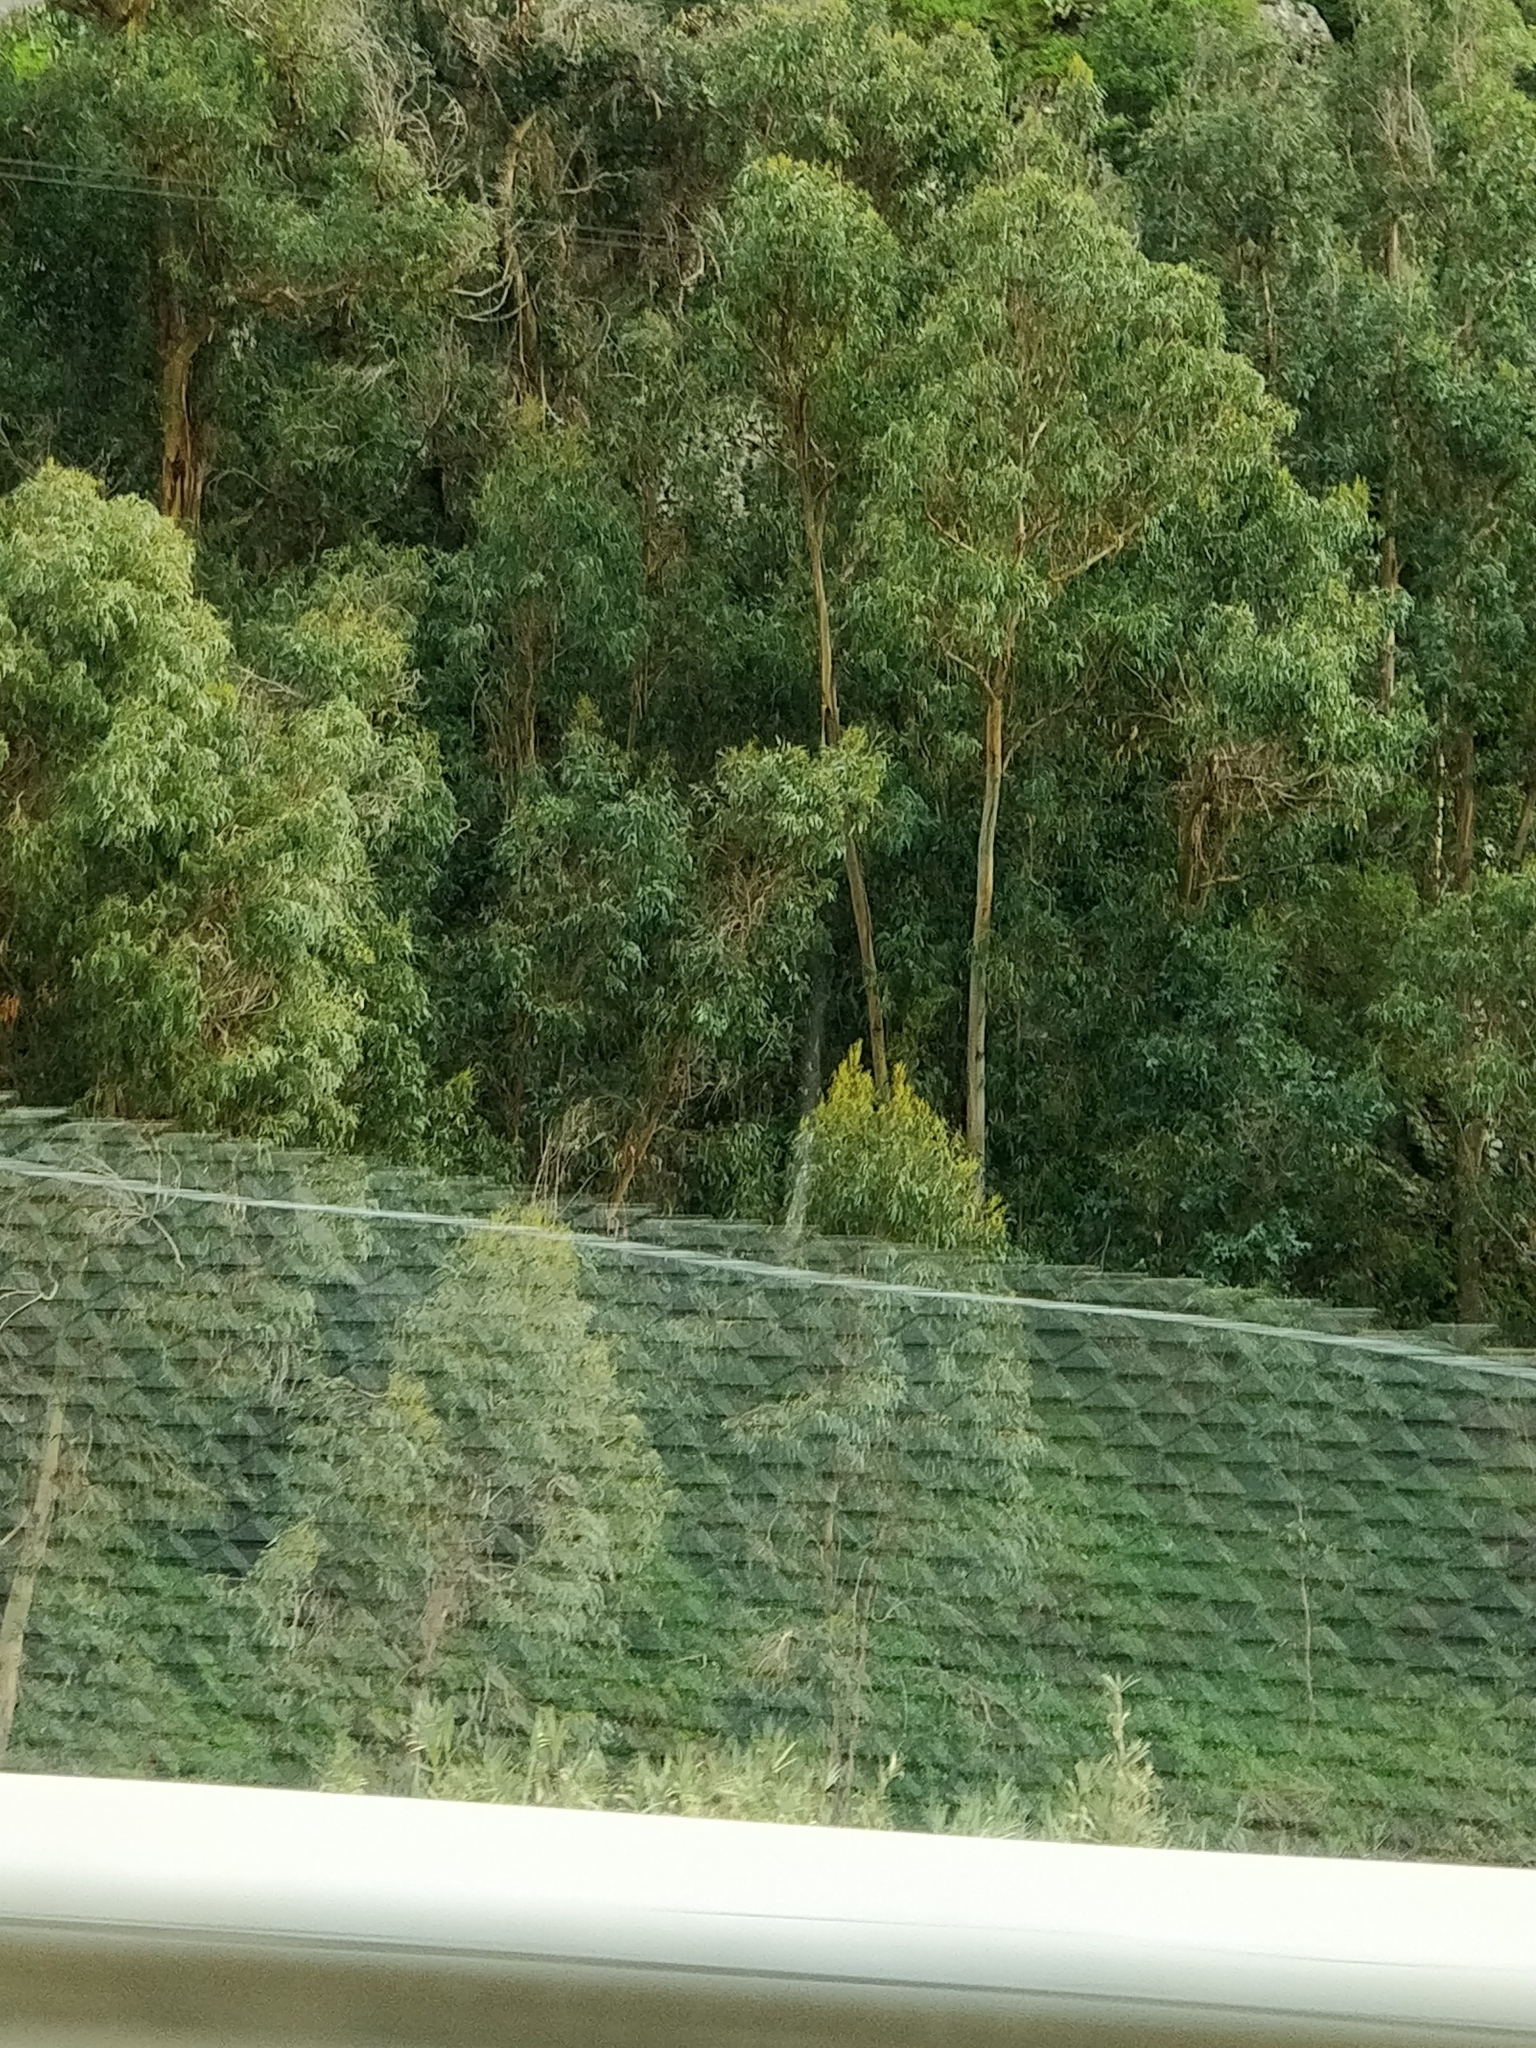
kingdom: Plantae
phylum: Tracheophyta
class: Magnoliopsida
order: Myrtales
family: Myrtaceae
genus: Eucalyptus
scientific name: Eucalyptus globulus
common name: Southern blue-gum
